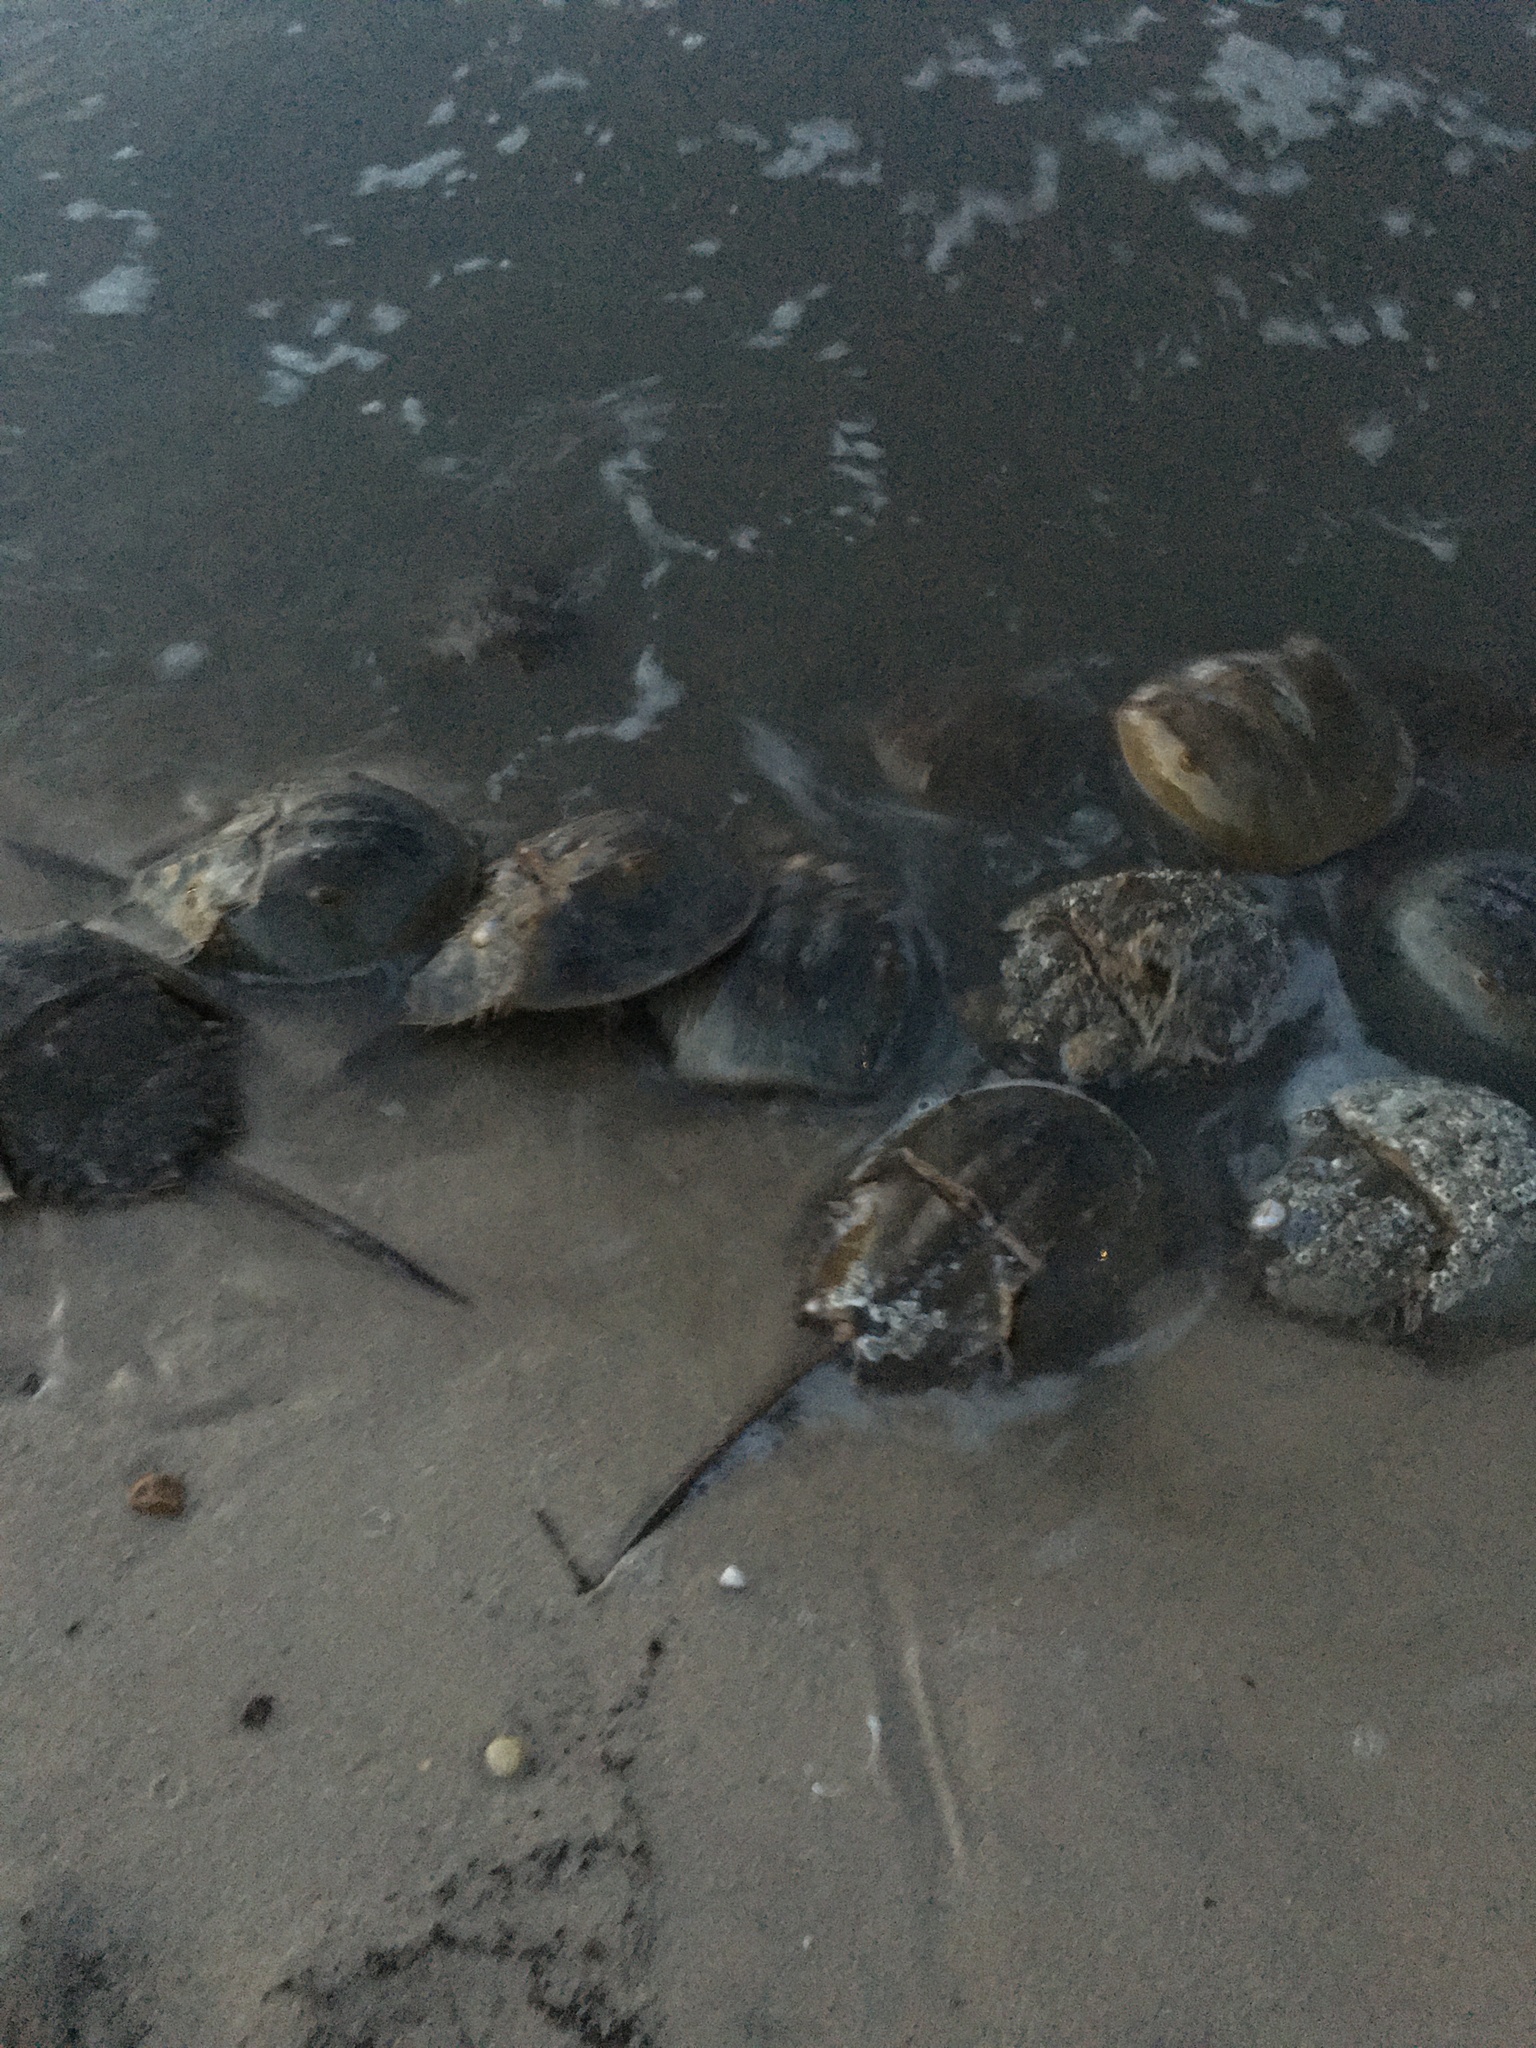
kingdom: Animalia
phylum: Arthropoda
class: Merostomata
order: Xiphosurida
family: Limulidae
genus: Limulus
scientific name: Limulus polyphemus
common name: Horseshoe crab
